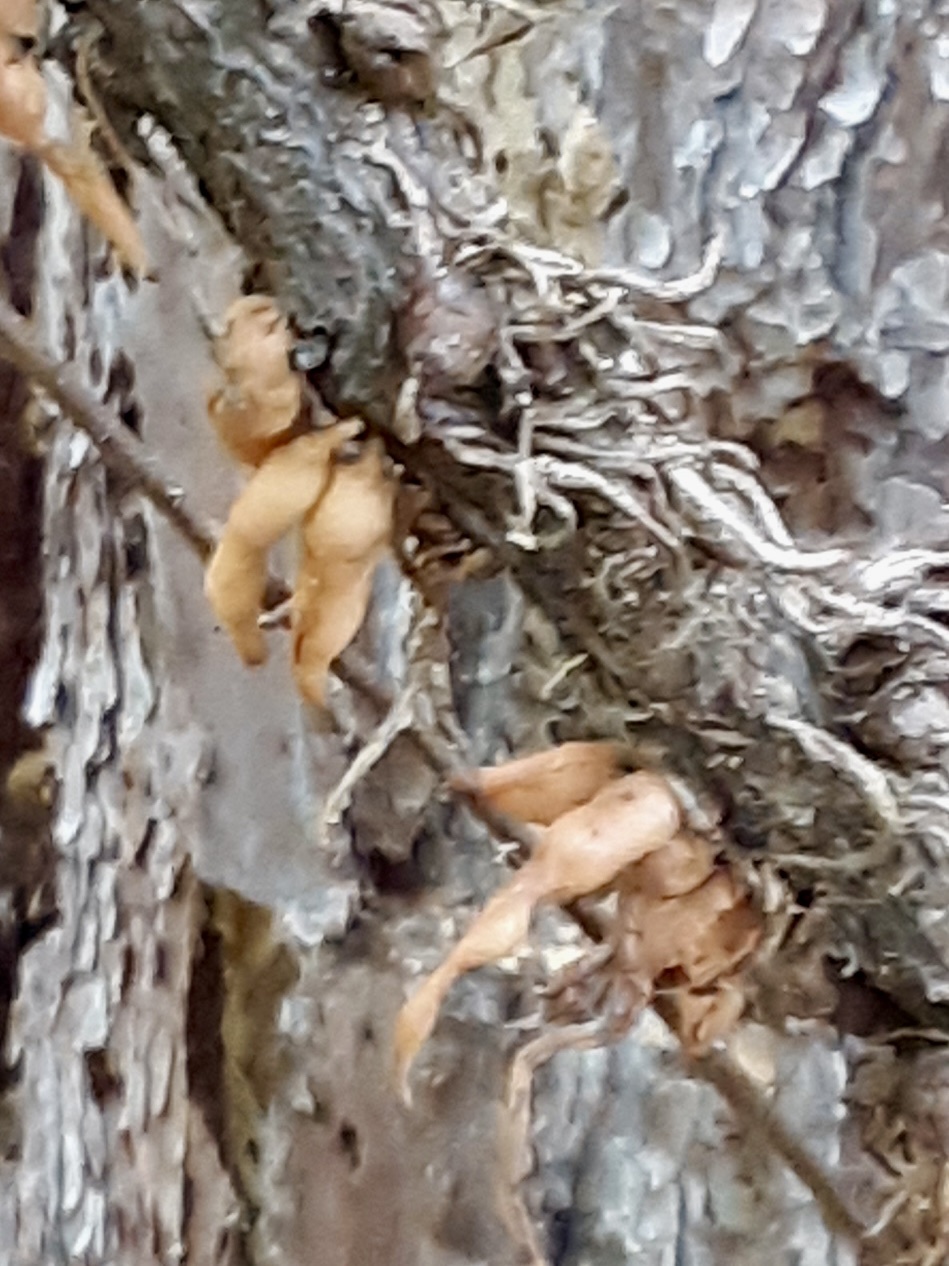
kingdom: Animalia
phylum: Arthropoda
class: Insecta
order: Diptera
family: Cecidomyiidae
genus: Lasioptera
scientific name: Lasioptera psederae
